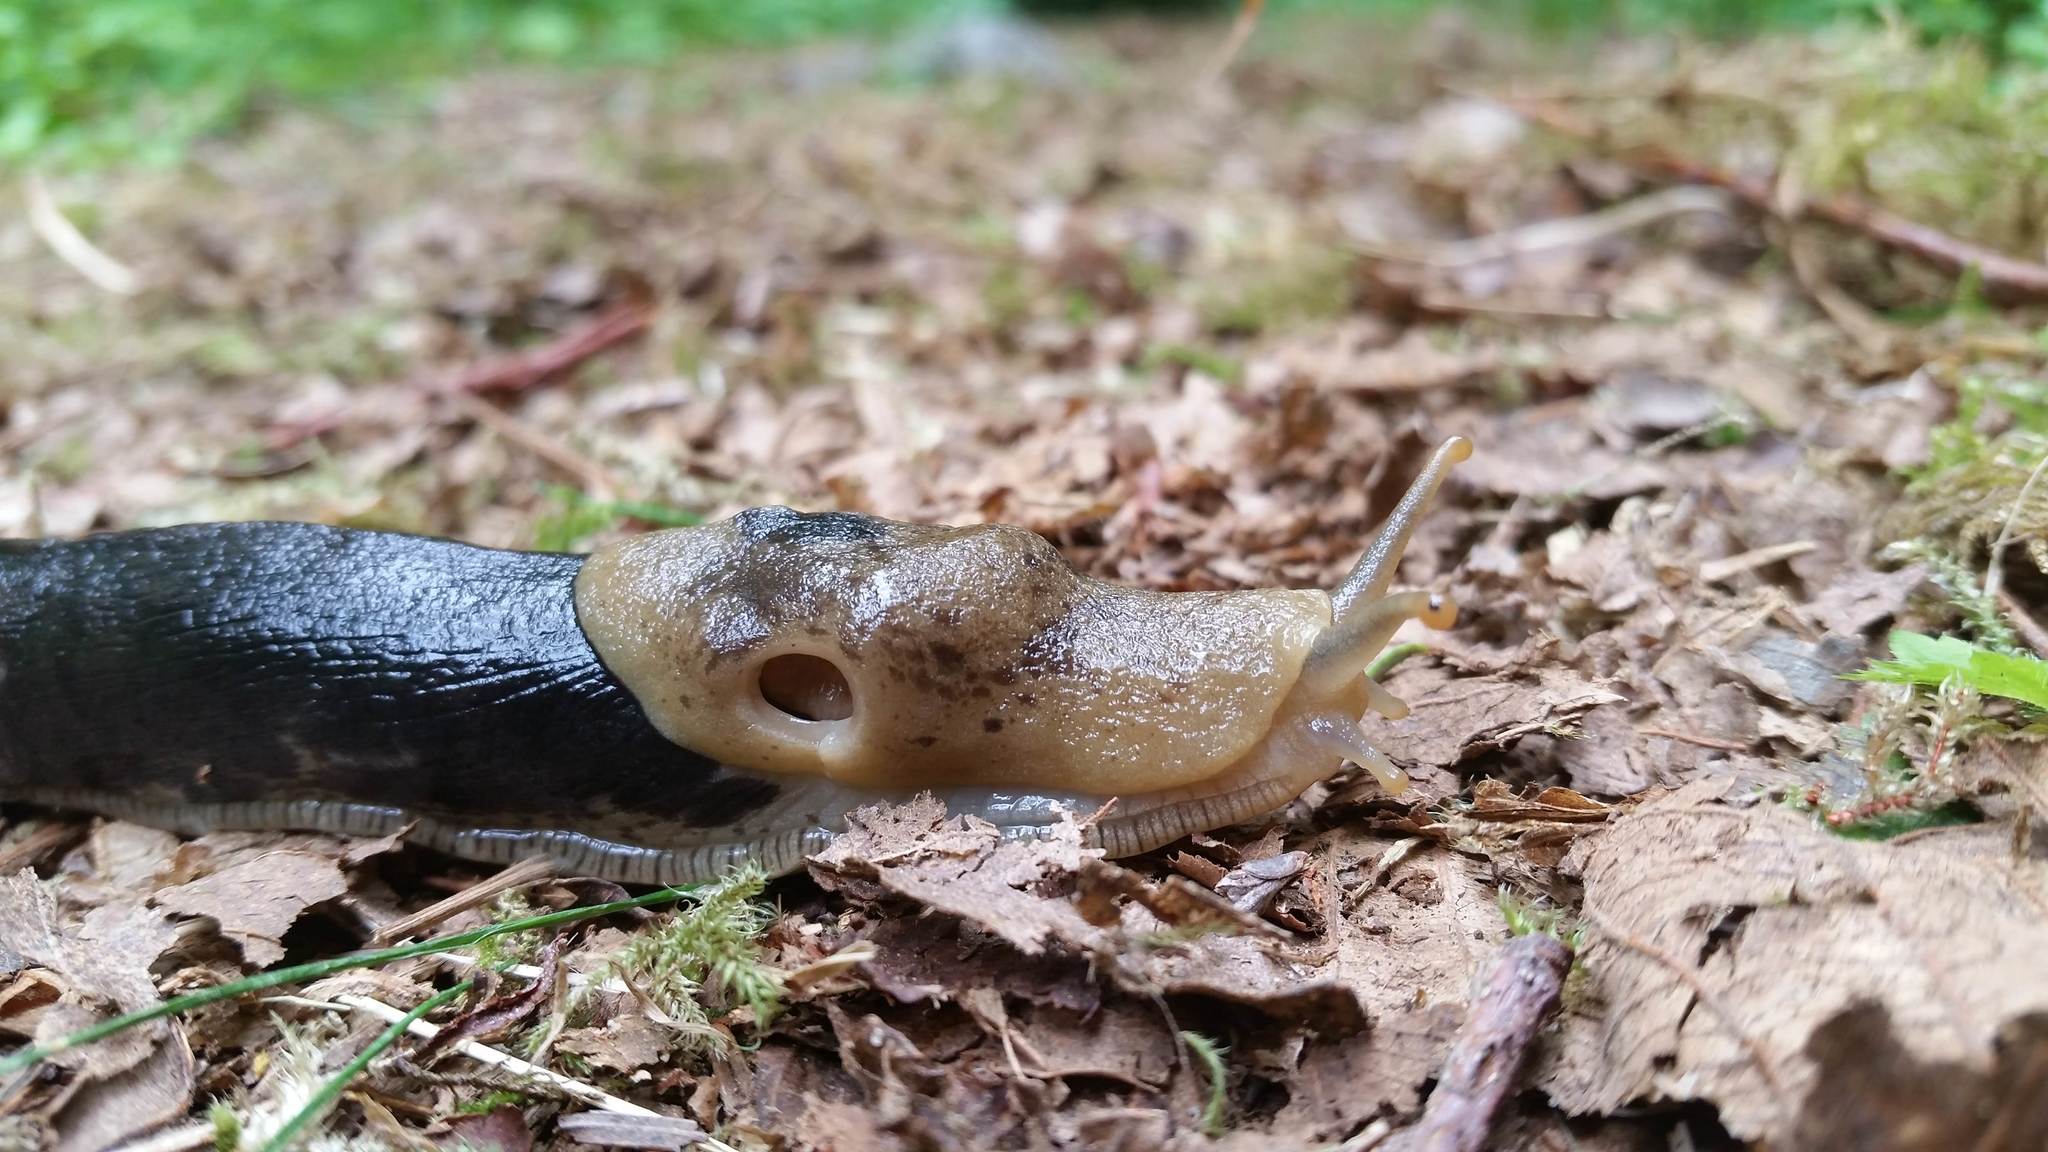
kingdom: Animalia
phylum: Mollusca
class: Gastropoda
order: Stylommatophora
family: Ariolimacidae
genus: Ariolimax
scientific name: Ariolimax columbianus
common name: Pacific banana slug
